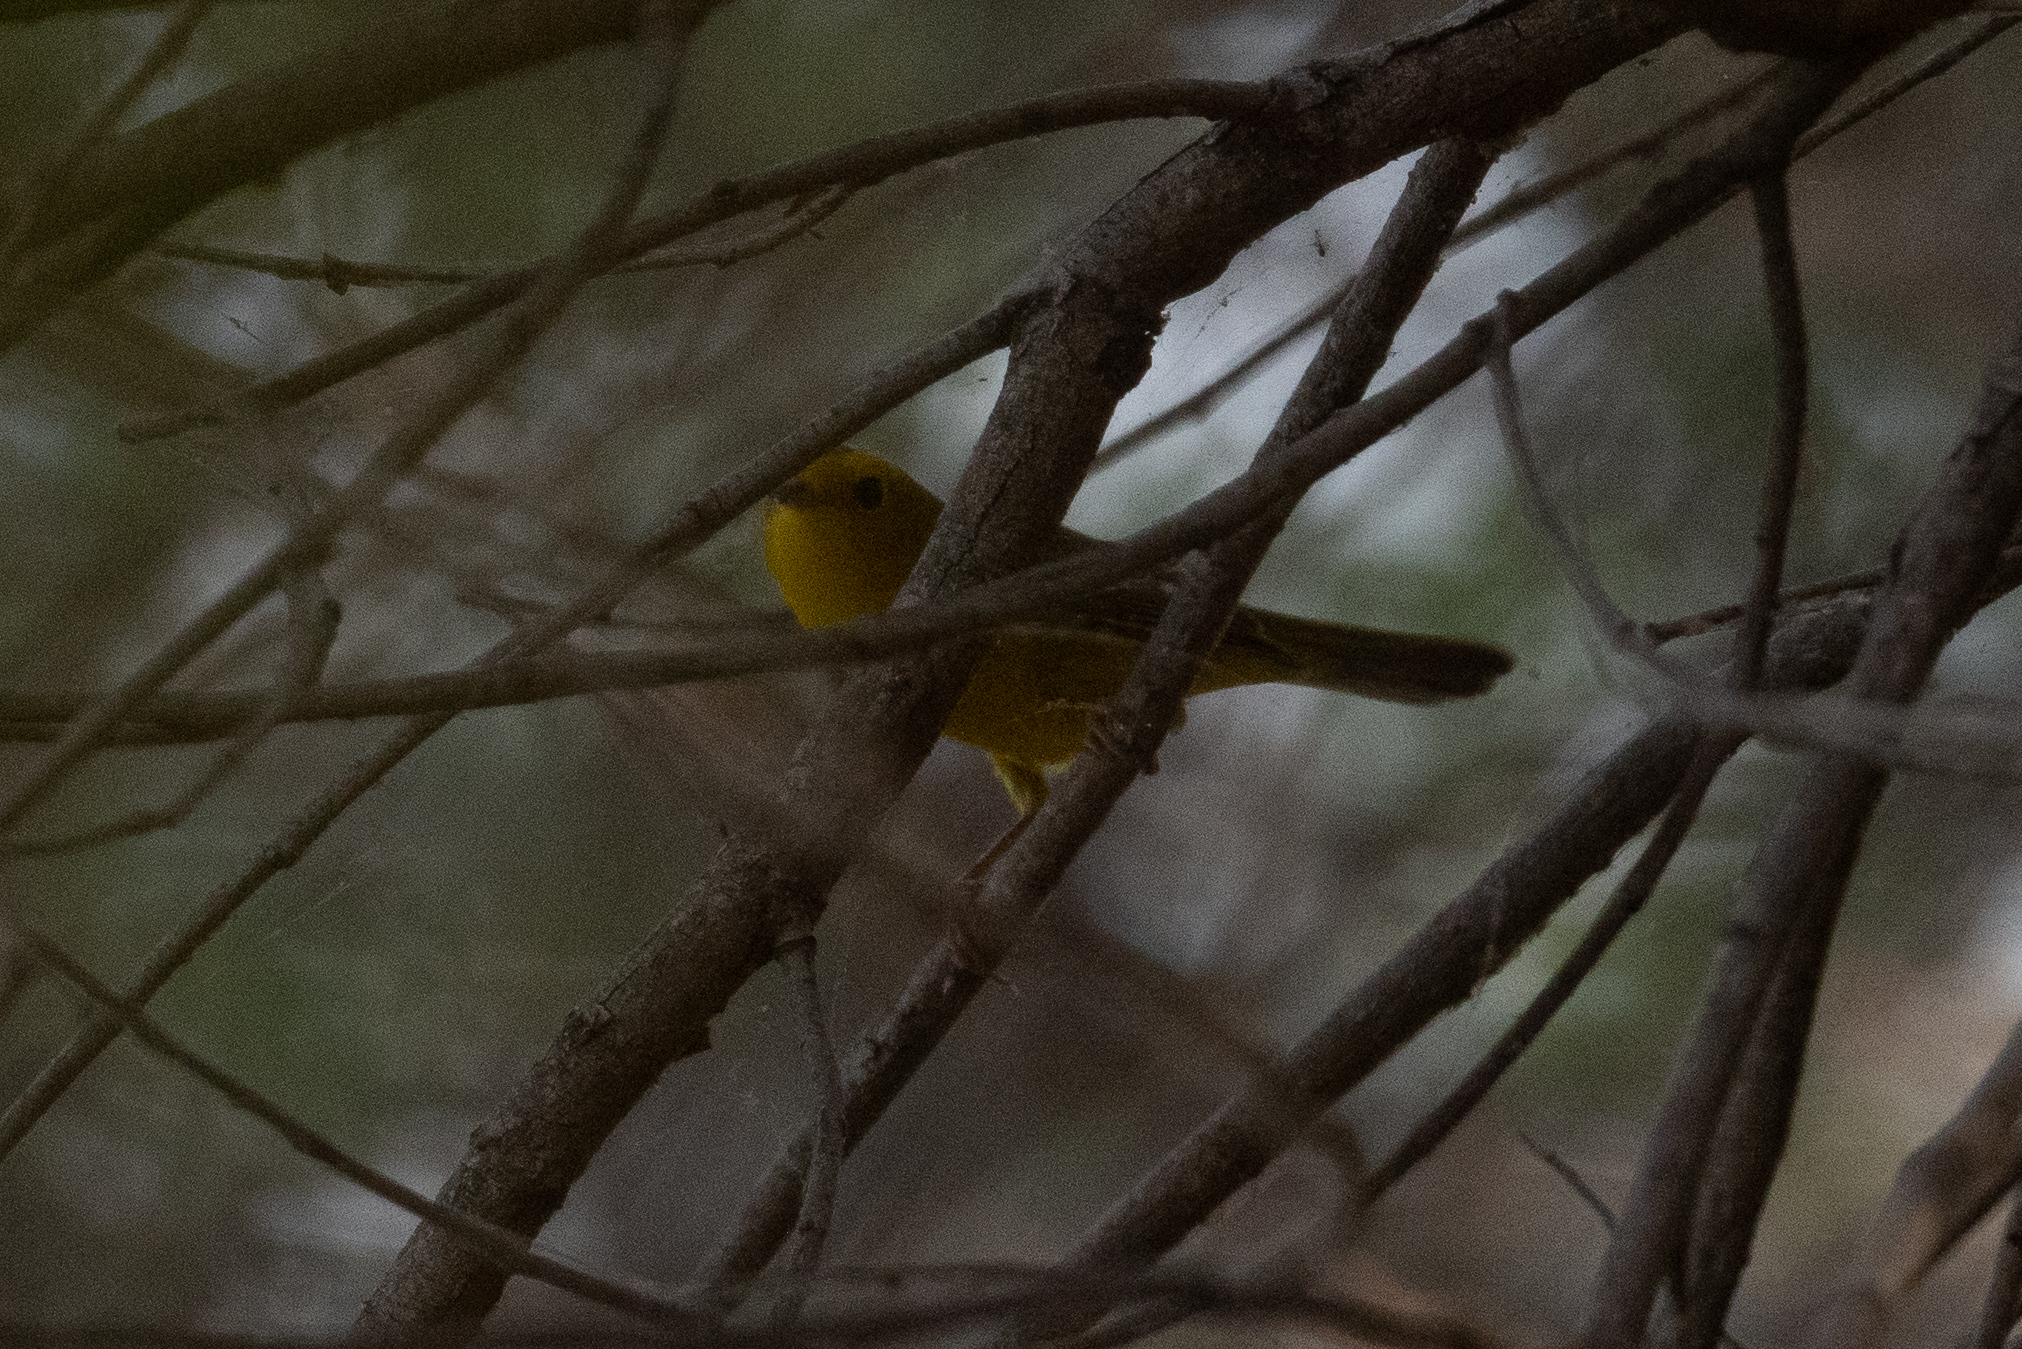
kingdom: Animalia
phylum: Chordata
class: Aves
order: Passeriformes
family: Parulidae
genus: Cardellina
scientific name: Cardellina pusilla
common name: Wilson's warbler
